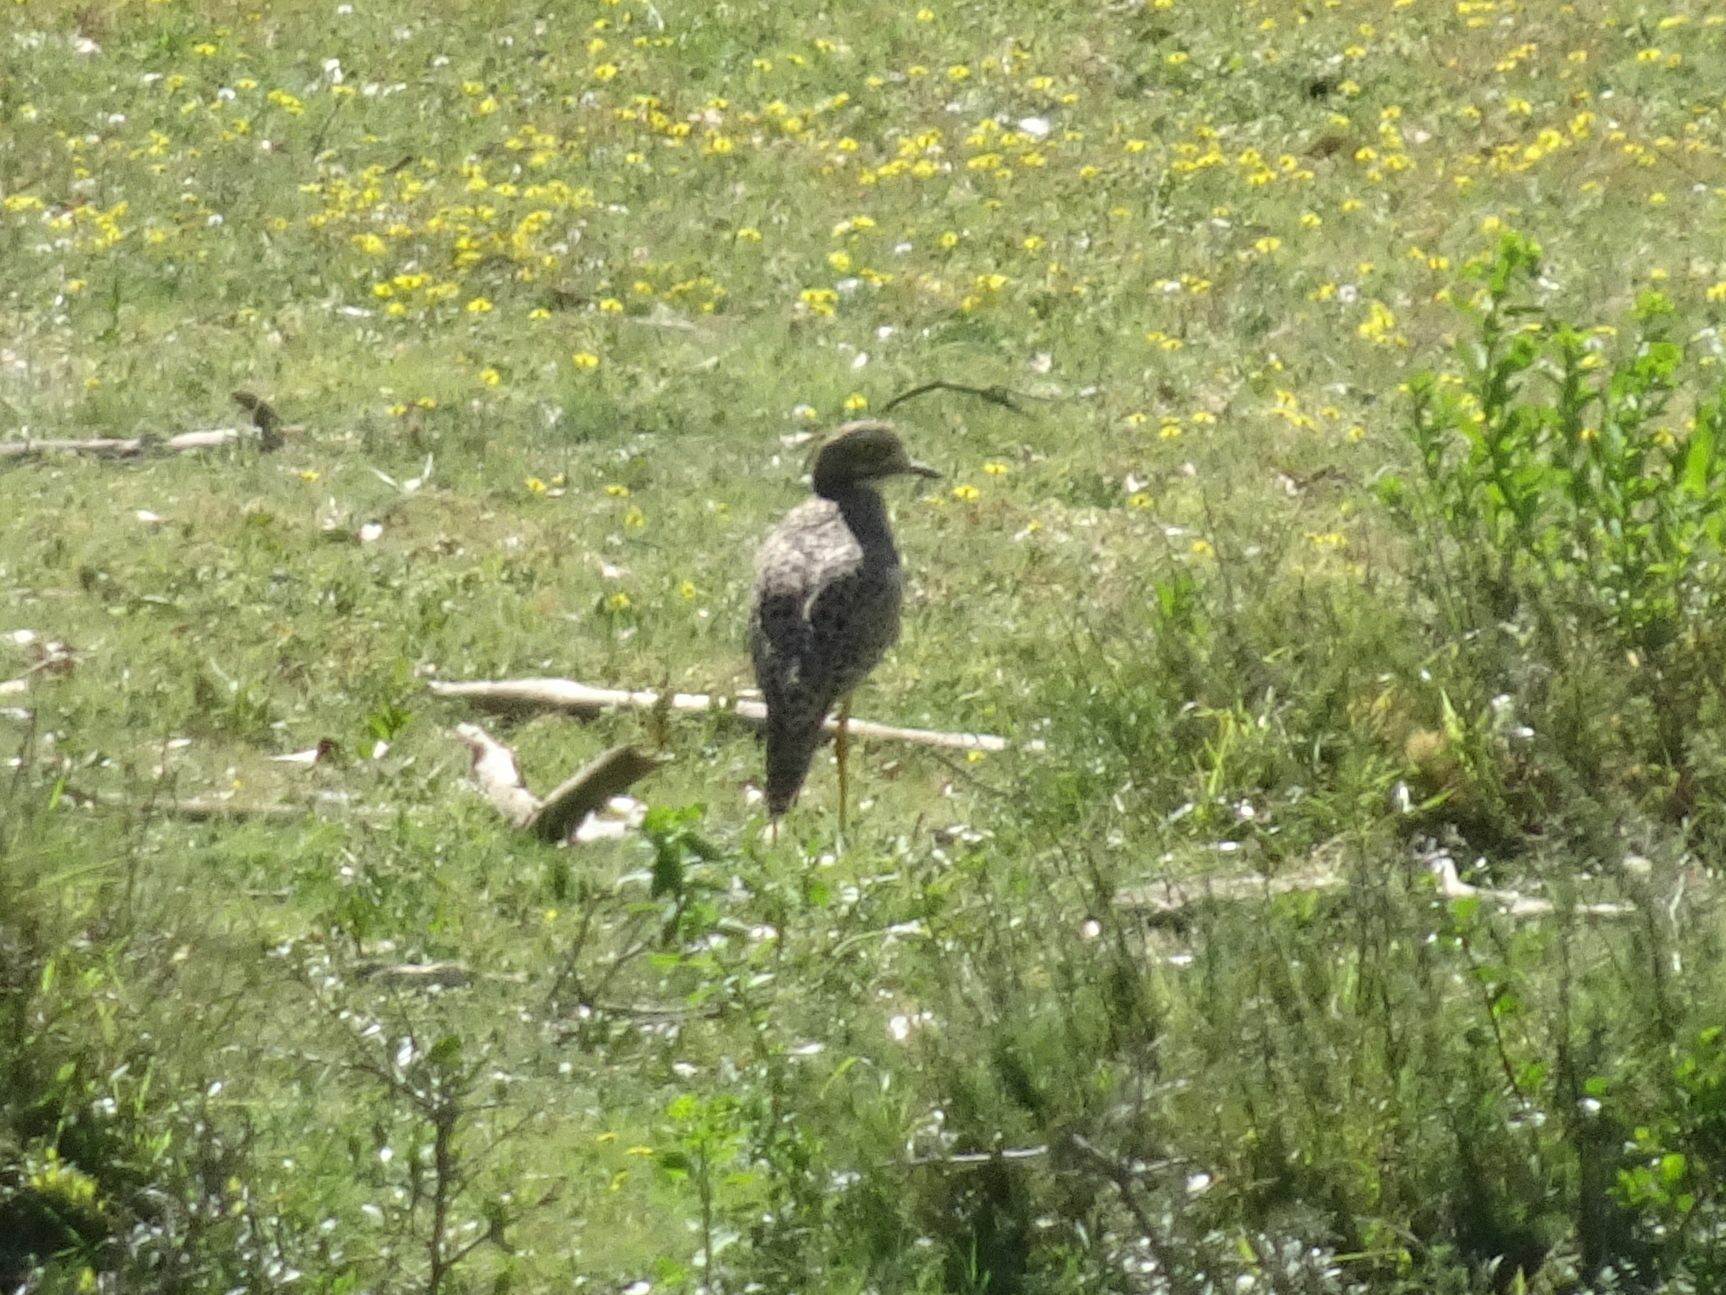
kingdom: Animalia
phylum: Chordata
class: Aves
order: Charadriiformes
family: Burhinidae
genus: Burhinus
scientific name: Burhinus capensis
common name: Spotted thick-knee
